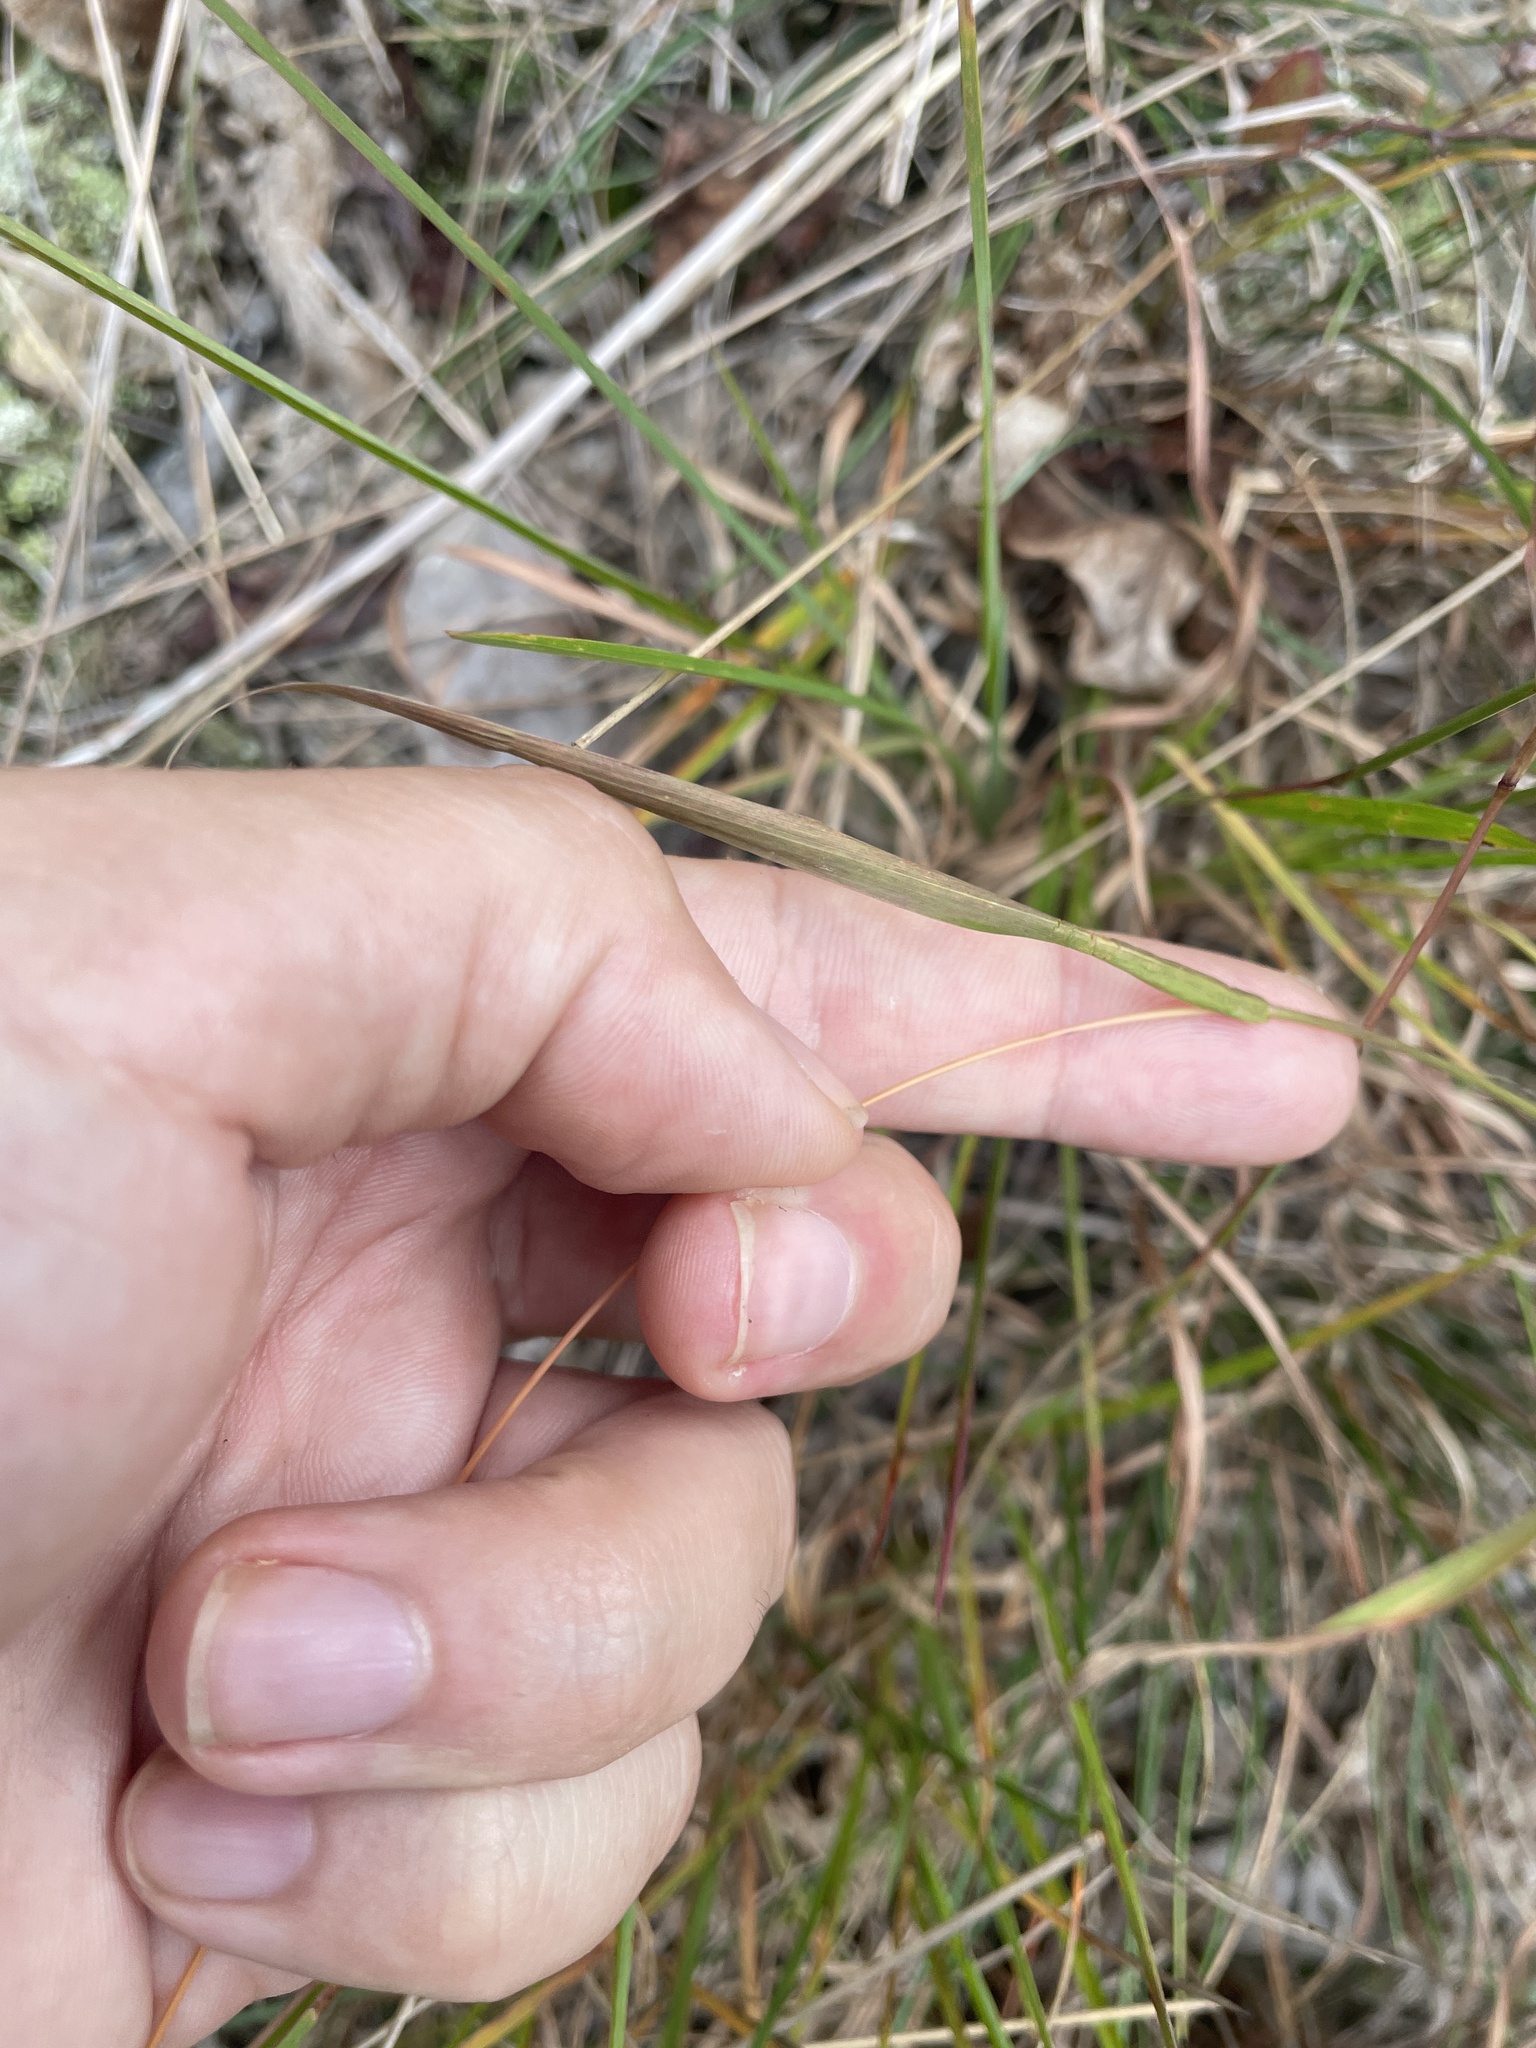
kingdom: Plantae
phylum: Tracheophyta
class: Liliopsida
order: Poales
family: Poaceae
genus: Chasmanthium
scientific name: Chasmanthium laxum
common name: Slender chasmanthium
